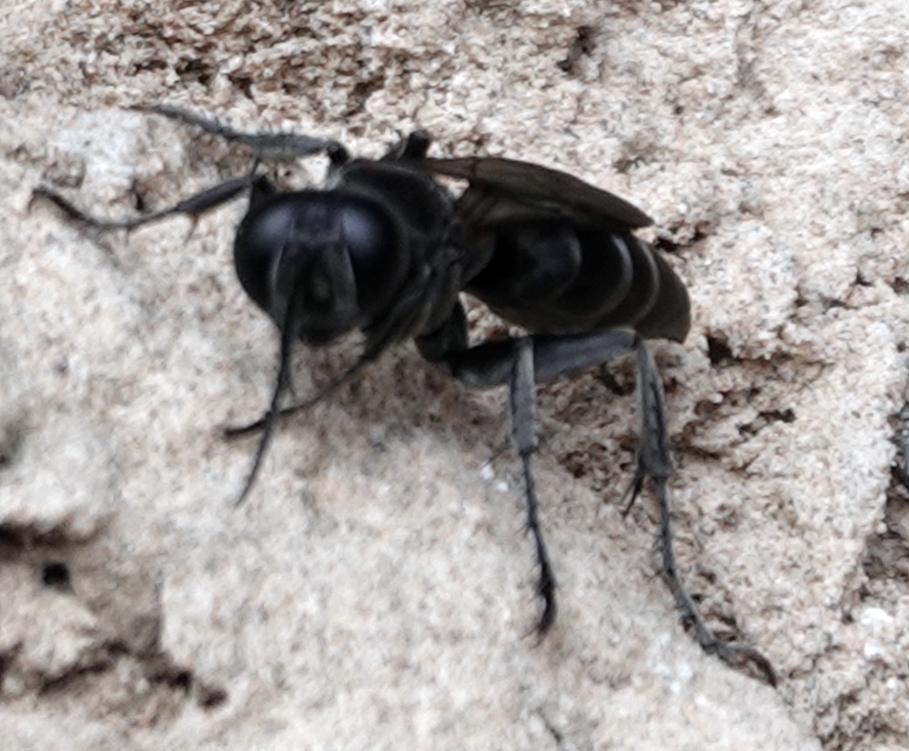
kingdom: Animalia
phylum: Arthropoda
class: Insecta
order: Hymenoptera
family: Crabronidae
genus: Liris
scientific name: Liris
